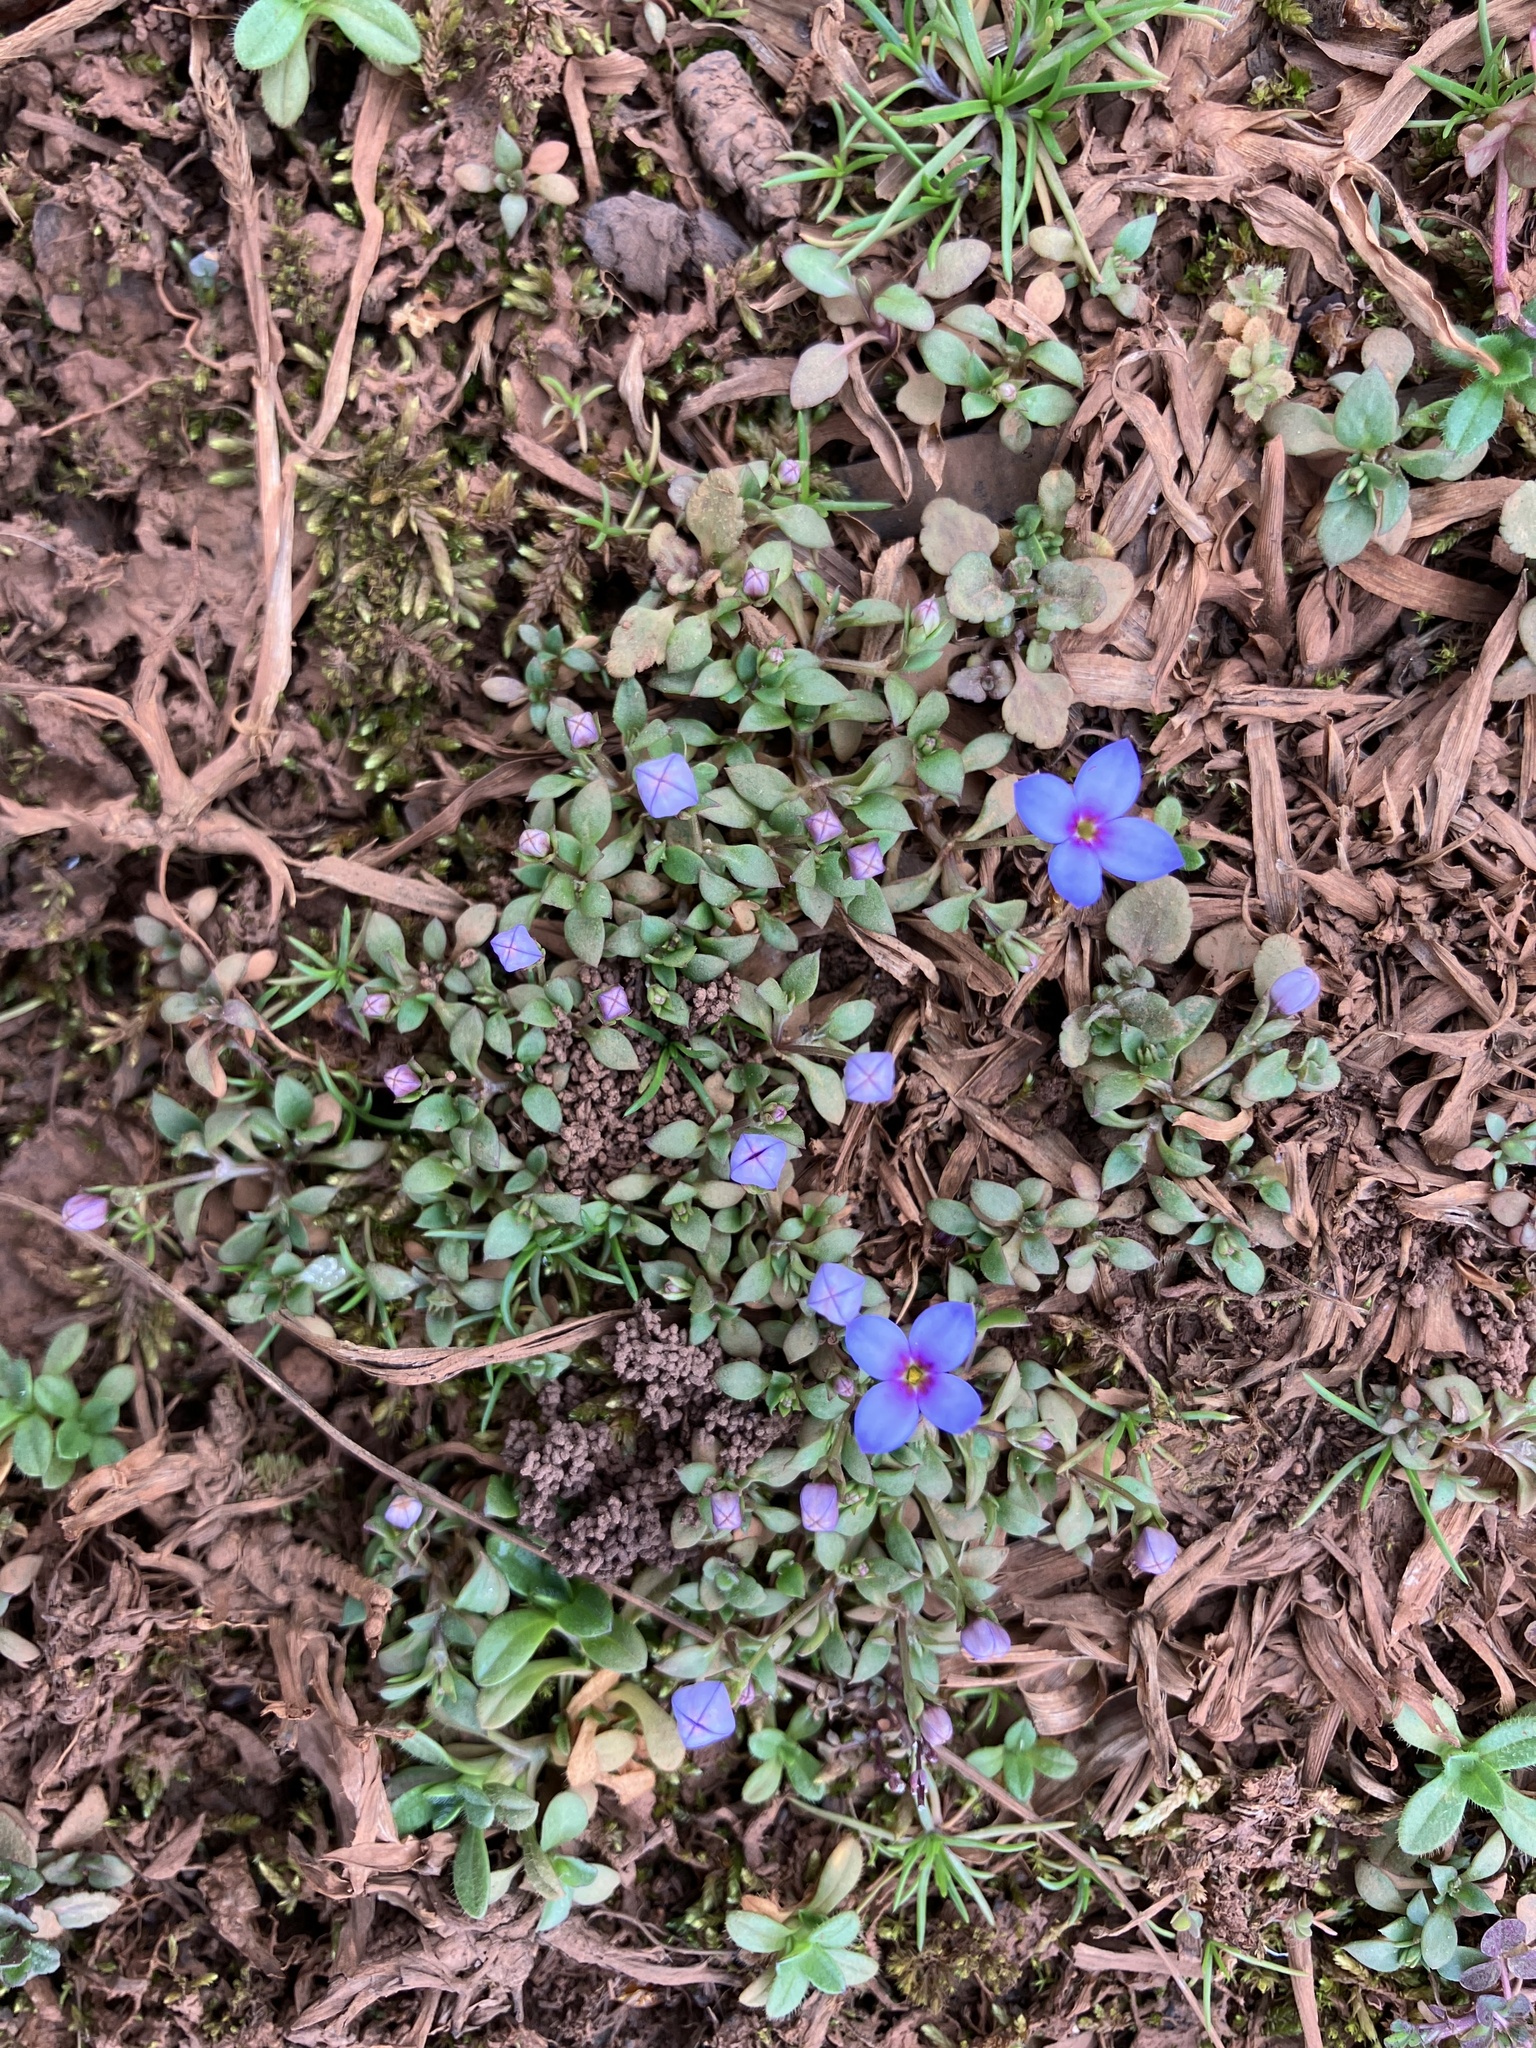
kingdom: Plantae
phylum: Tracheophyta
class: Magnoliopsida
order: Gentianales
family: Rubiaceae
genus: Houstonia
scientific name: Houstonia pusilla
